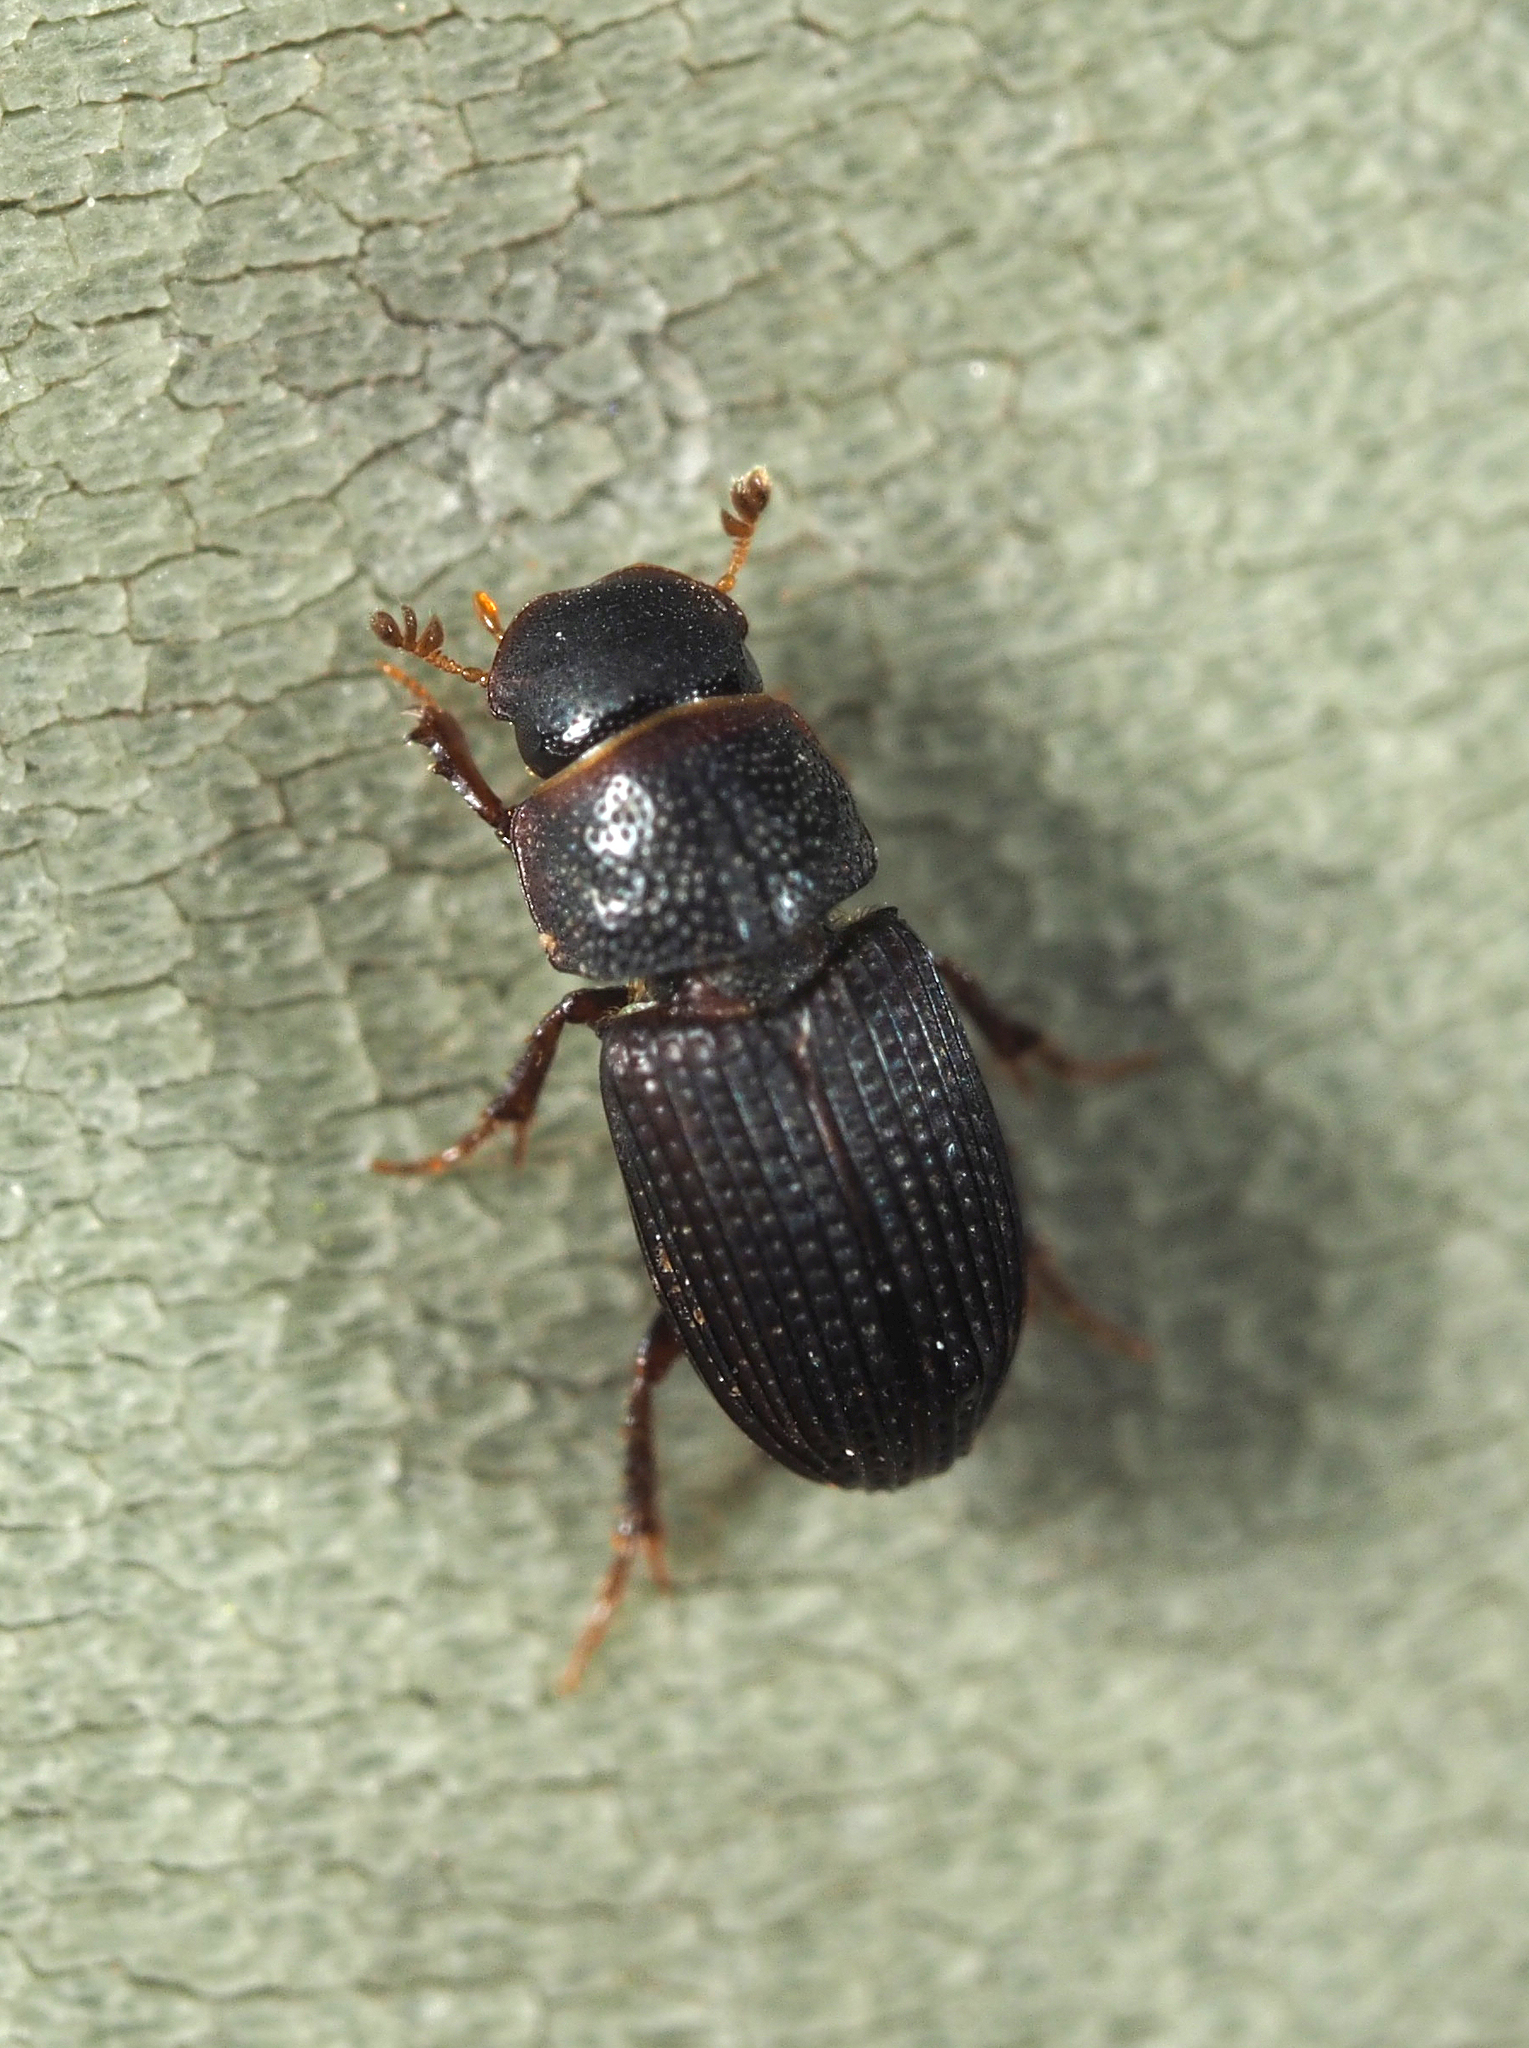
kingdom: Animalia
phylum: Arthropoda
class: Insecta
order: Coleoptera
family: Scarabaeidae
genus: Oxyomus
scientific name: Oxyomus sylvestris
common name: Forest small dung beetle
